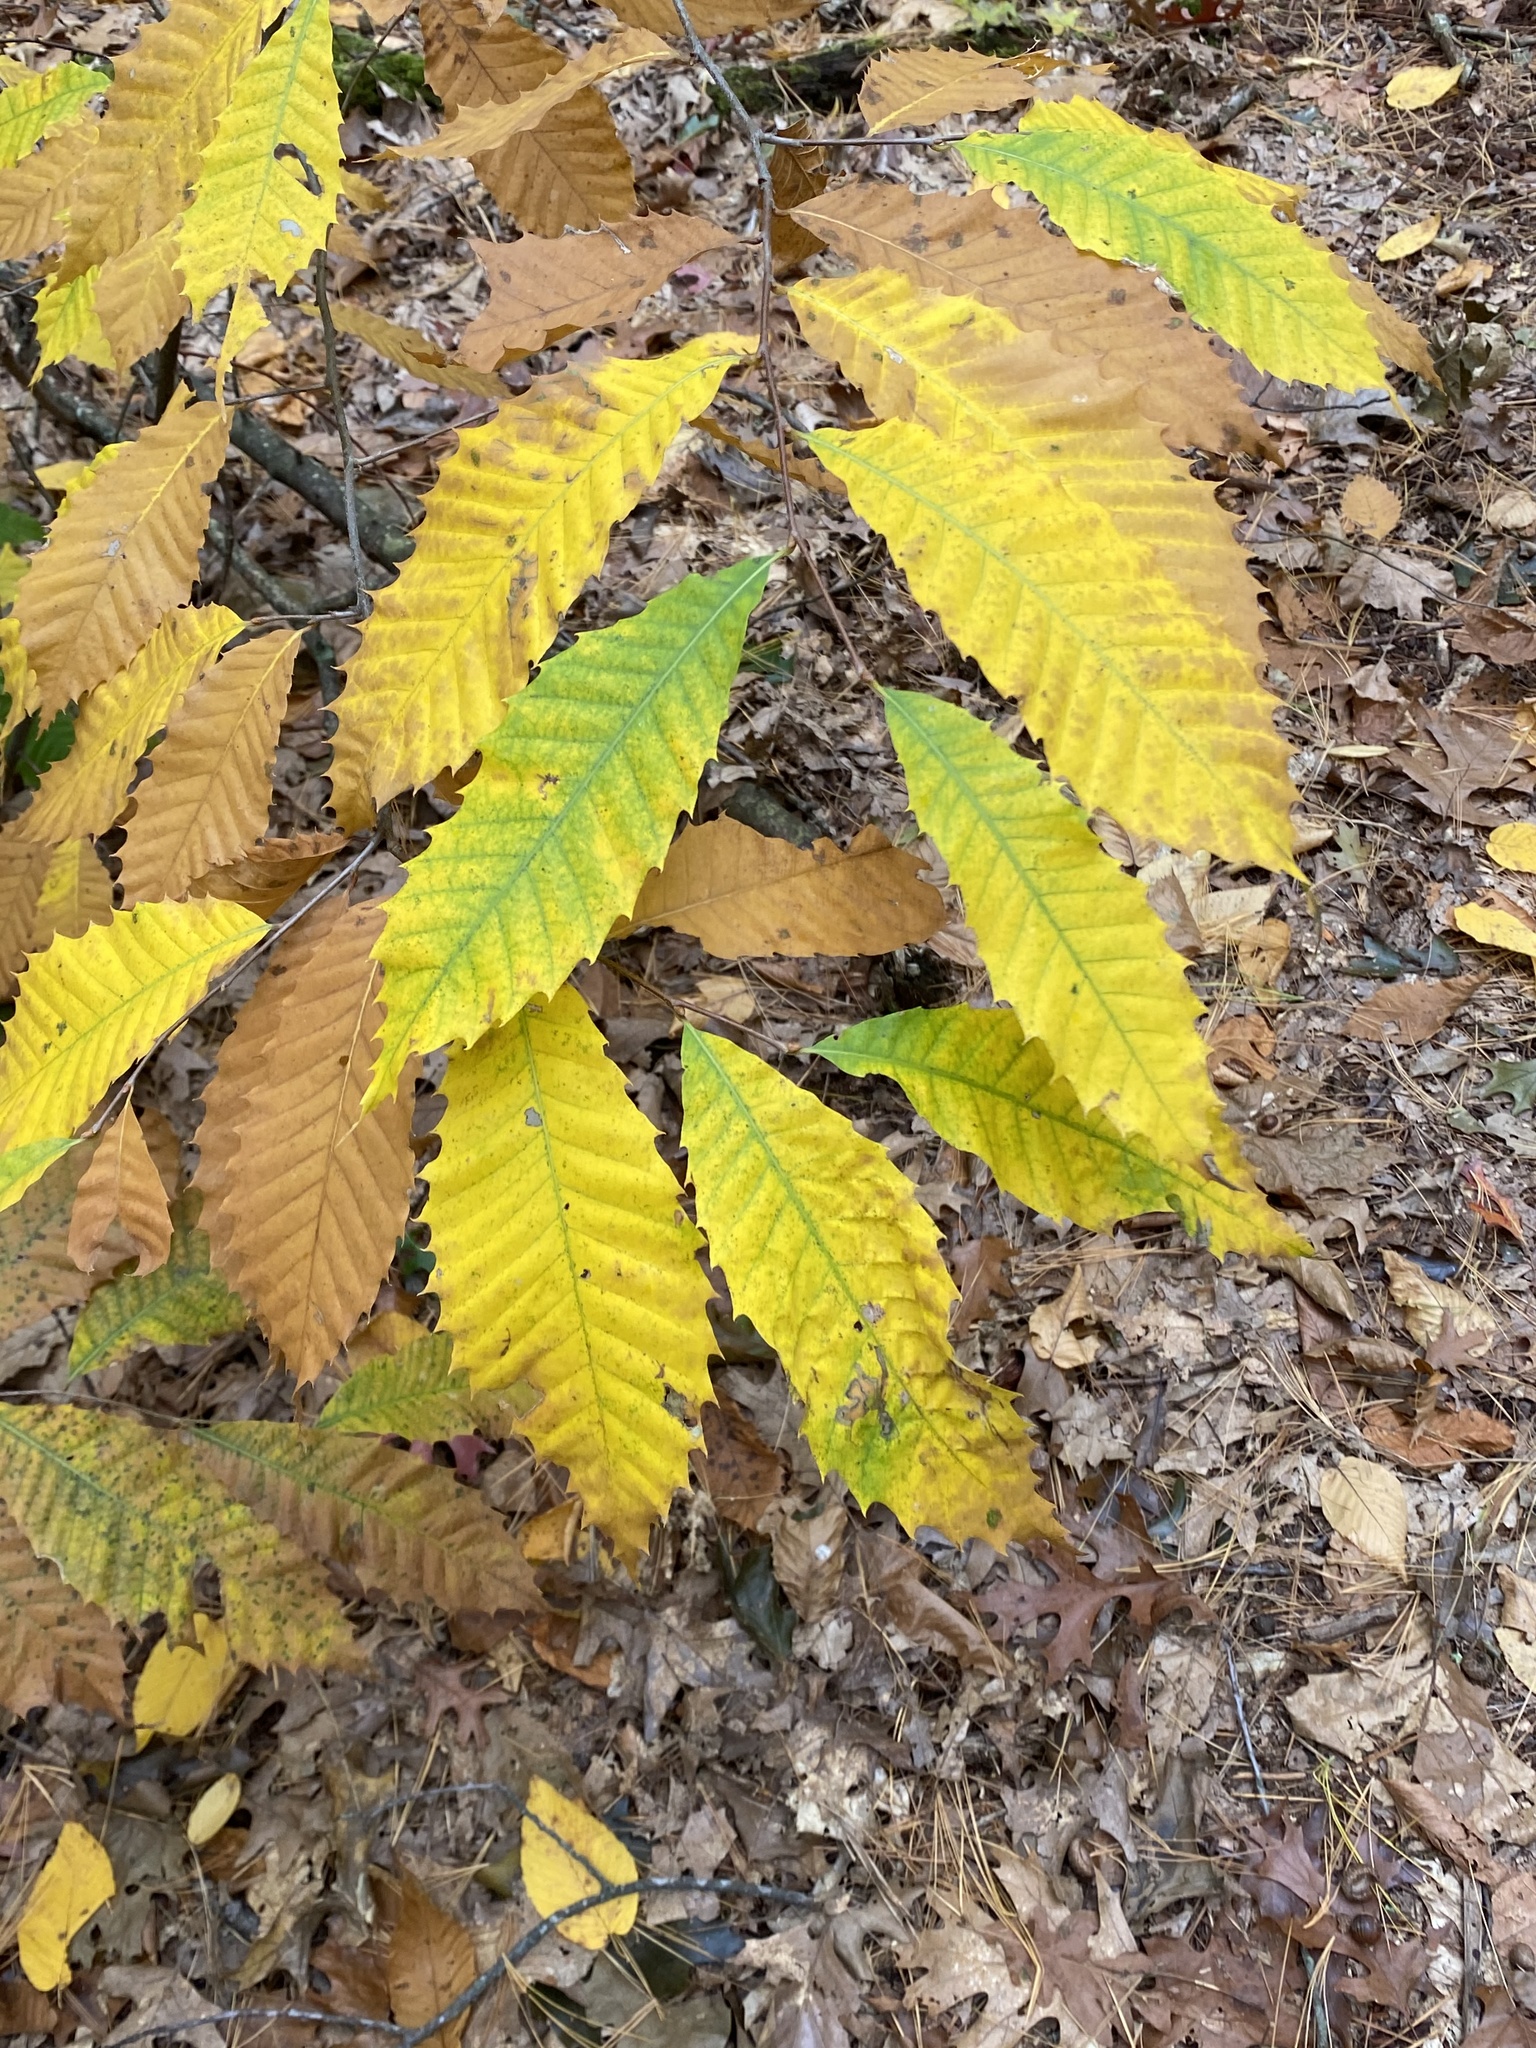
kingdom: Plantae
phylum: Tracheophyta
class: Magnoliopsida
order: Fagales
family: Fagaceae
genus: Castanea
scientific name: Castanea dentata
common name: American chestnut
